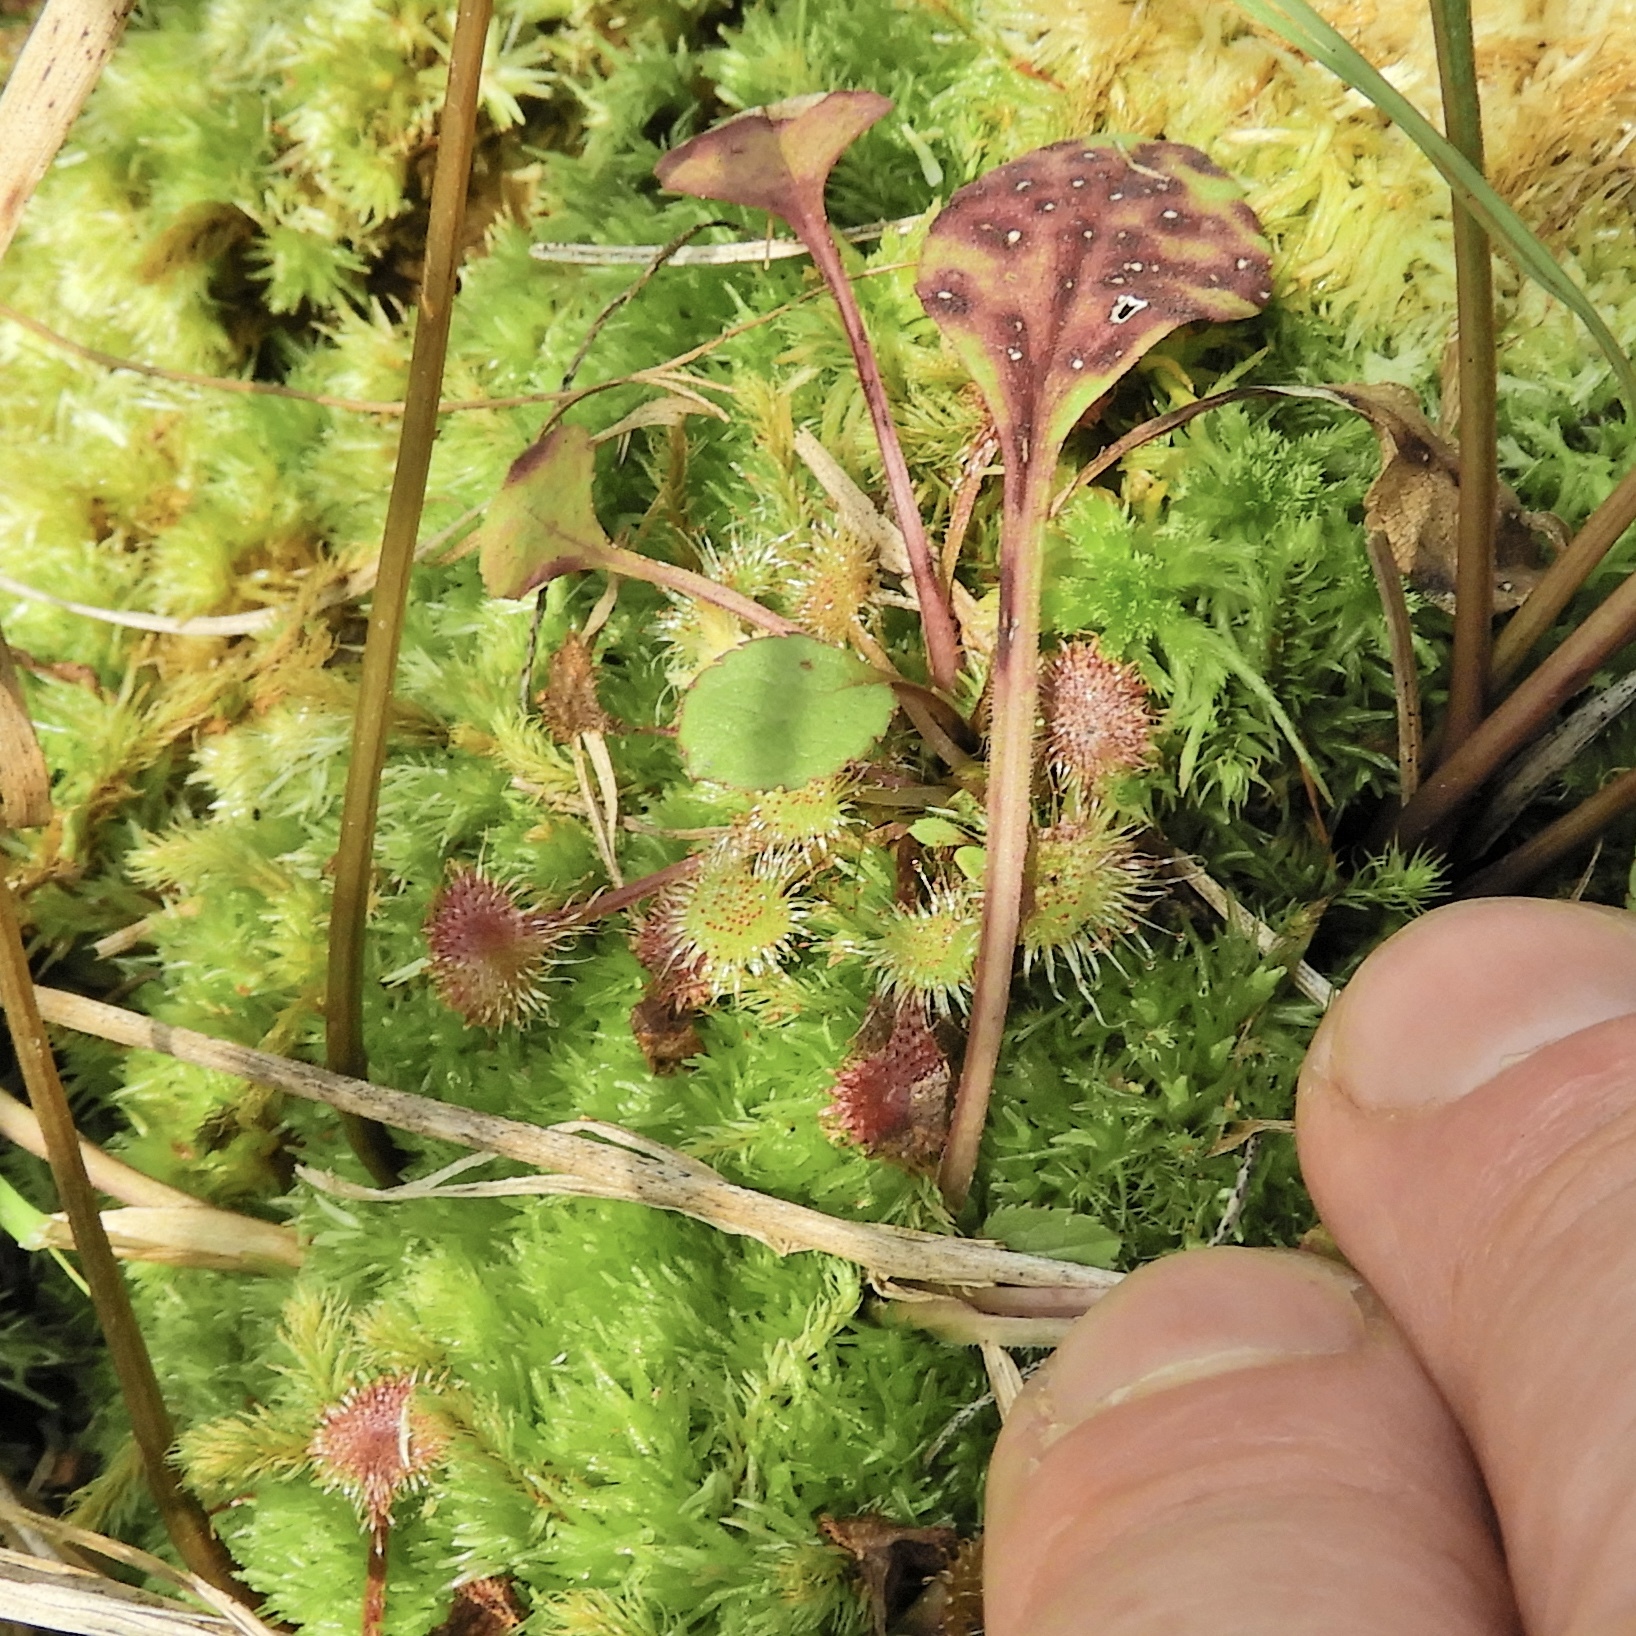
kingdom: Plantae
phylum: Tracheophyta
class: Magnoliopsida
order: Caryophyllales
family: Droseraceae
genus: Drosera
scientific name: Drosera rotundifolia
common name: Round-leaved sundew
